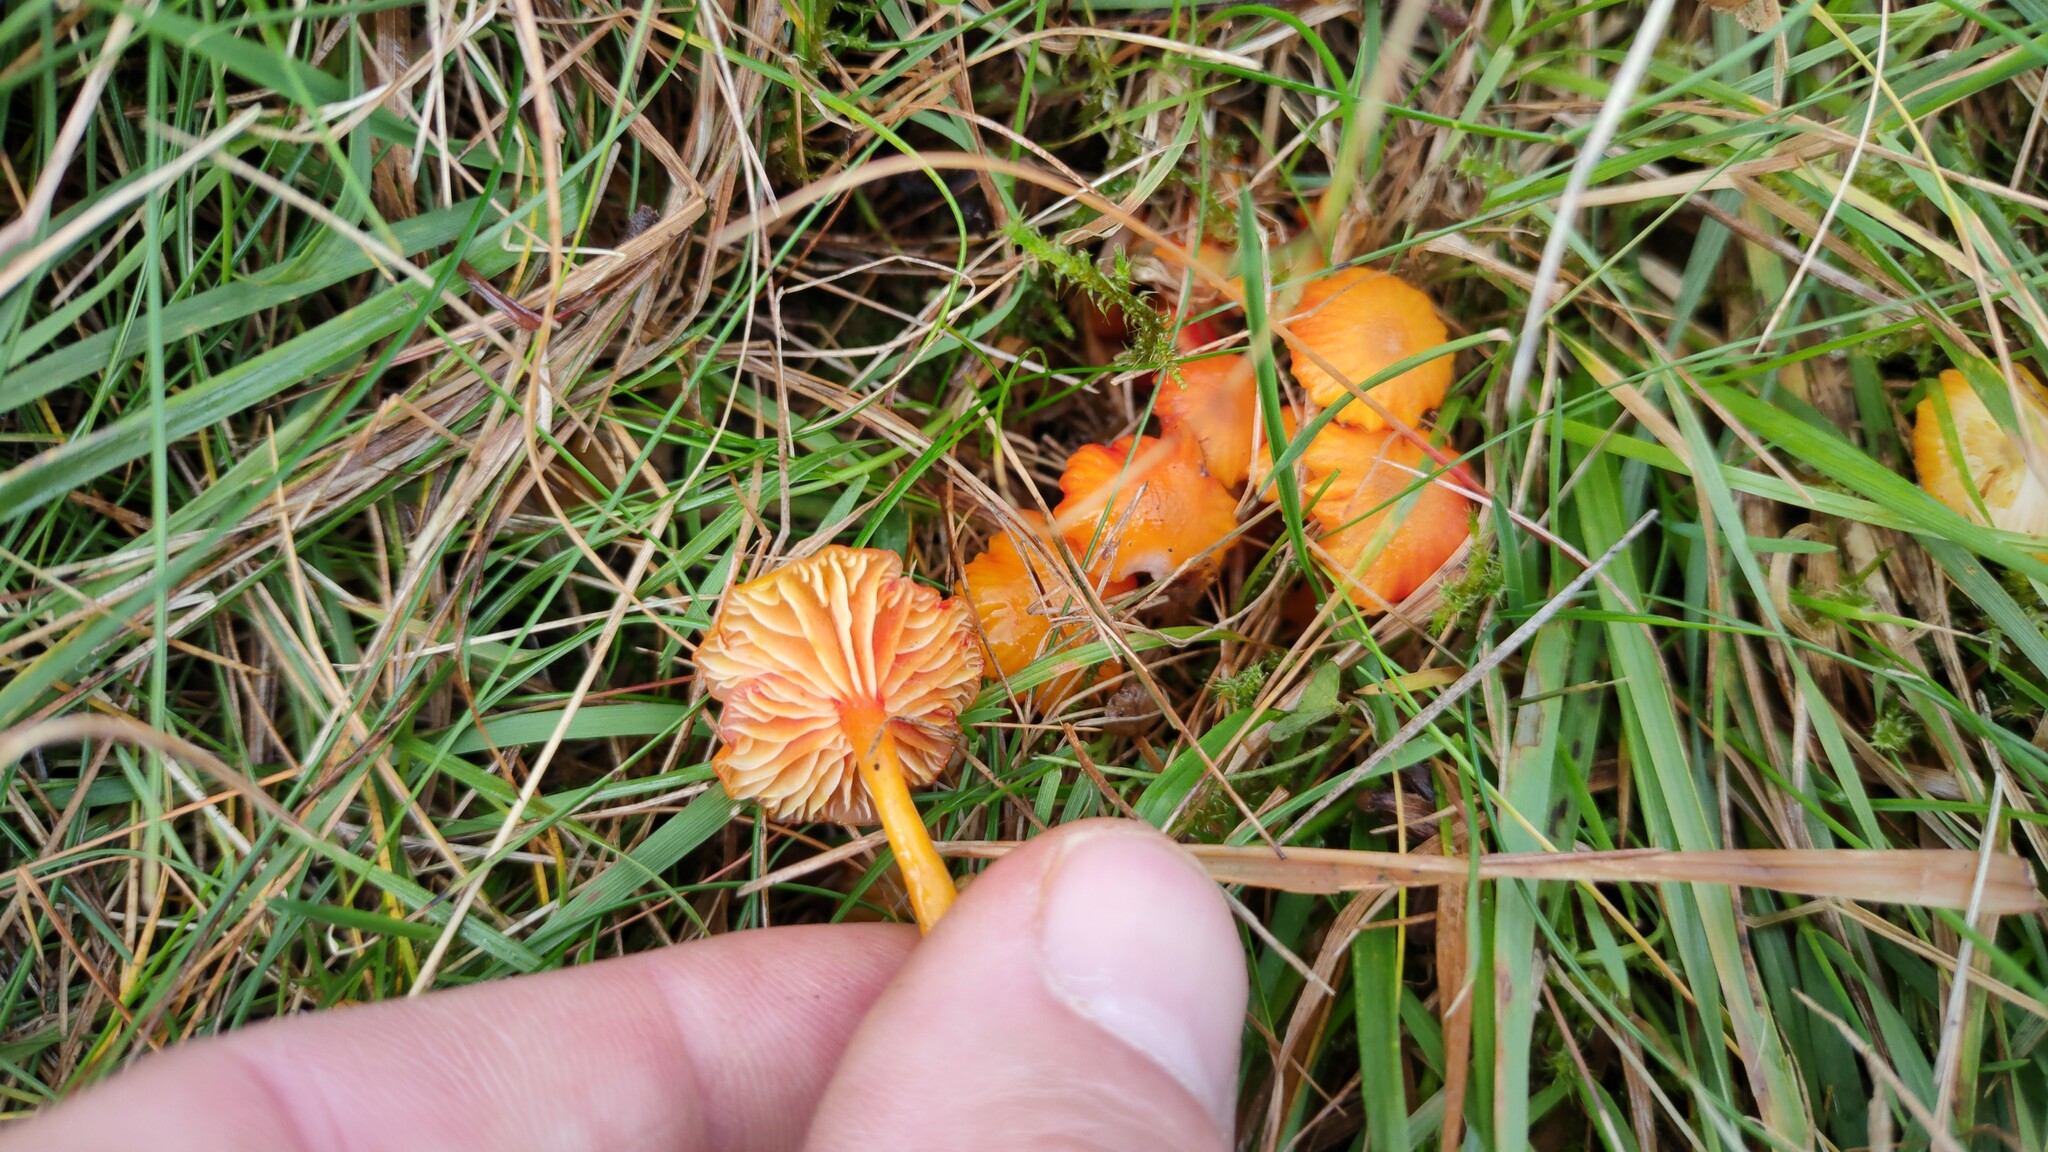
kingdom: Fungi
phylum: Basidiomycota
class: Agaricomycetes
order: Agaricales
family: Hygrophoraceae
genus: Hygrocybe
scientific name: Hygrocybe insipida
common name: Spangle waxcap
